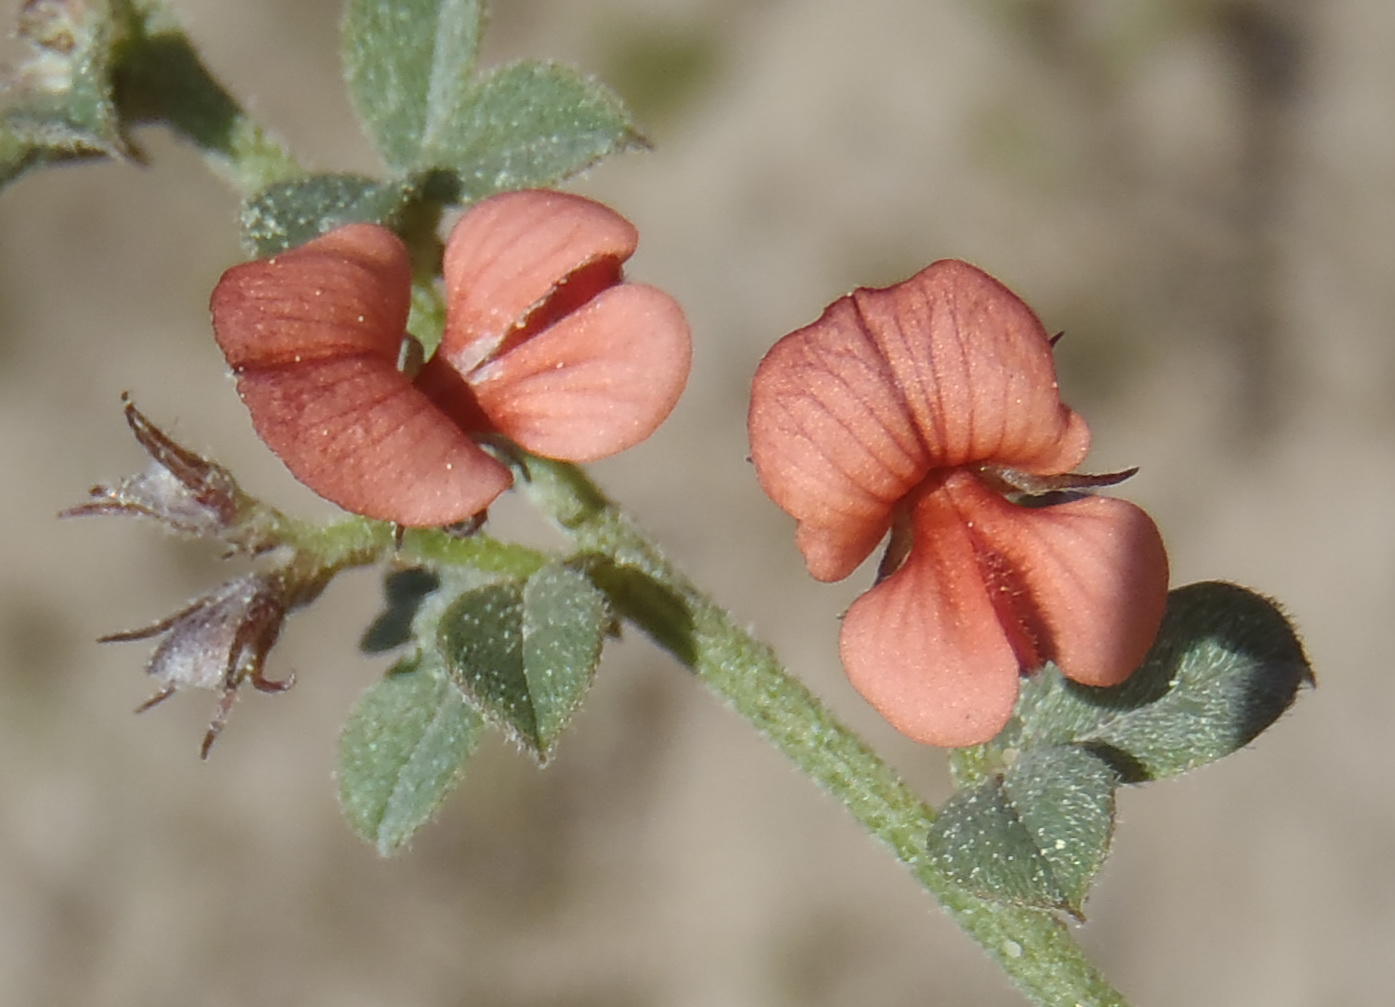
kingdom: Plantae
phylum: Tracheophyta
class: Magnoliopsida
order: Fabales
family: Fabaceae
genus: Indigofera
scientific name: Indigofera priorii
